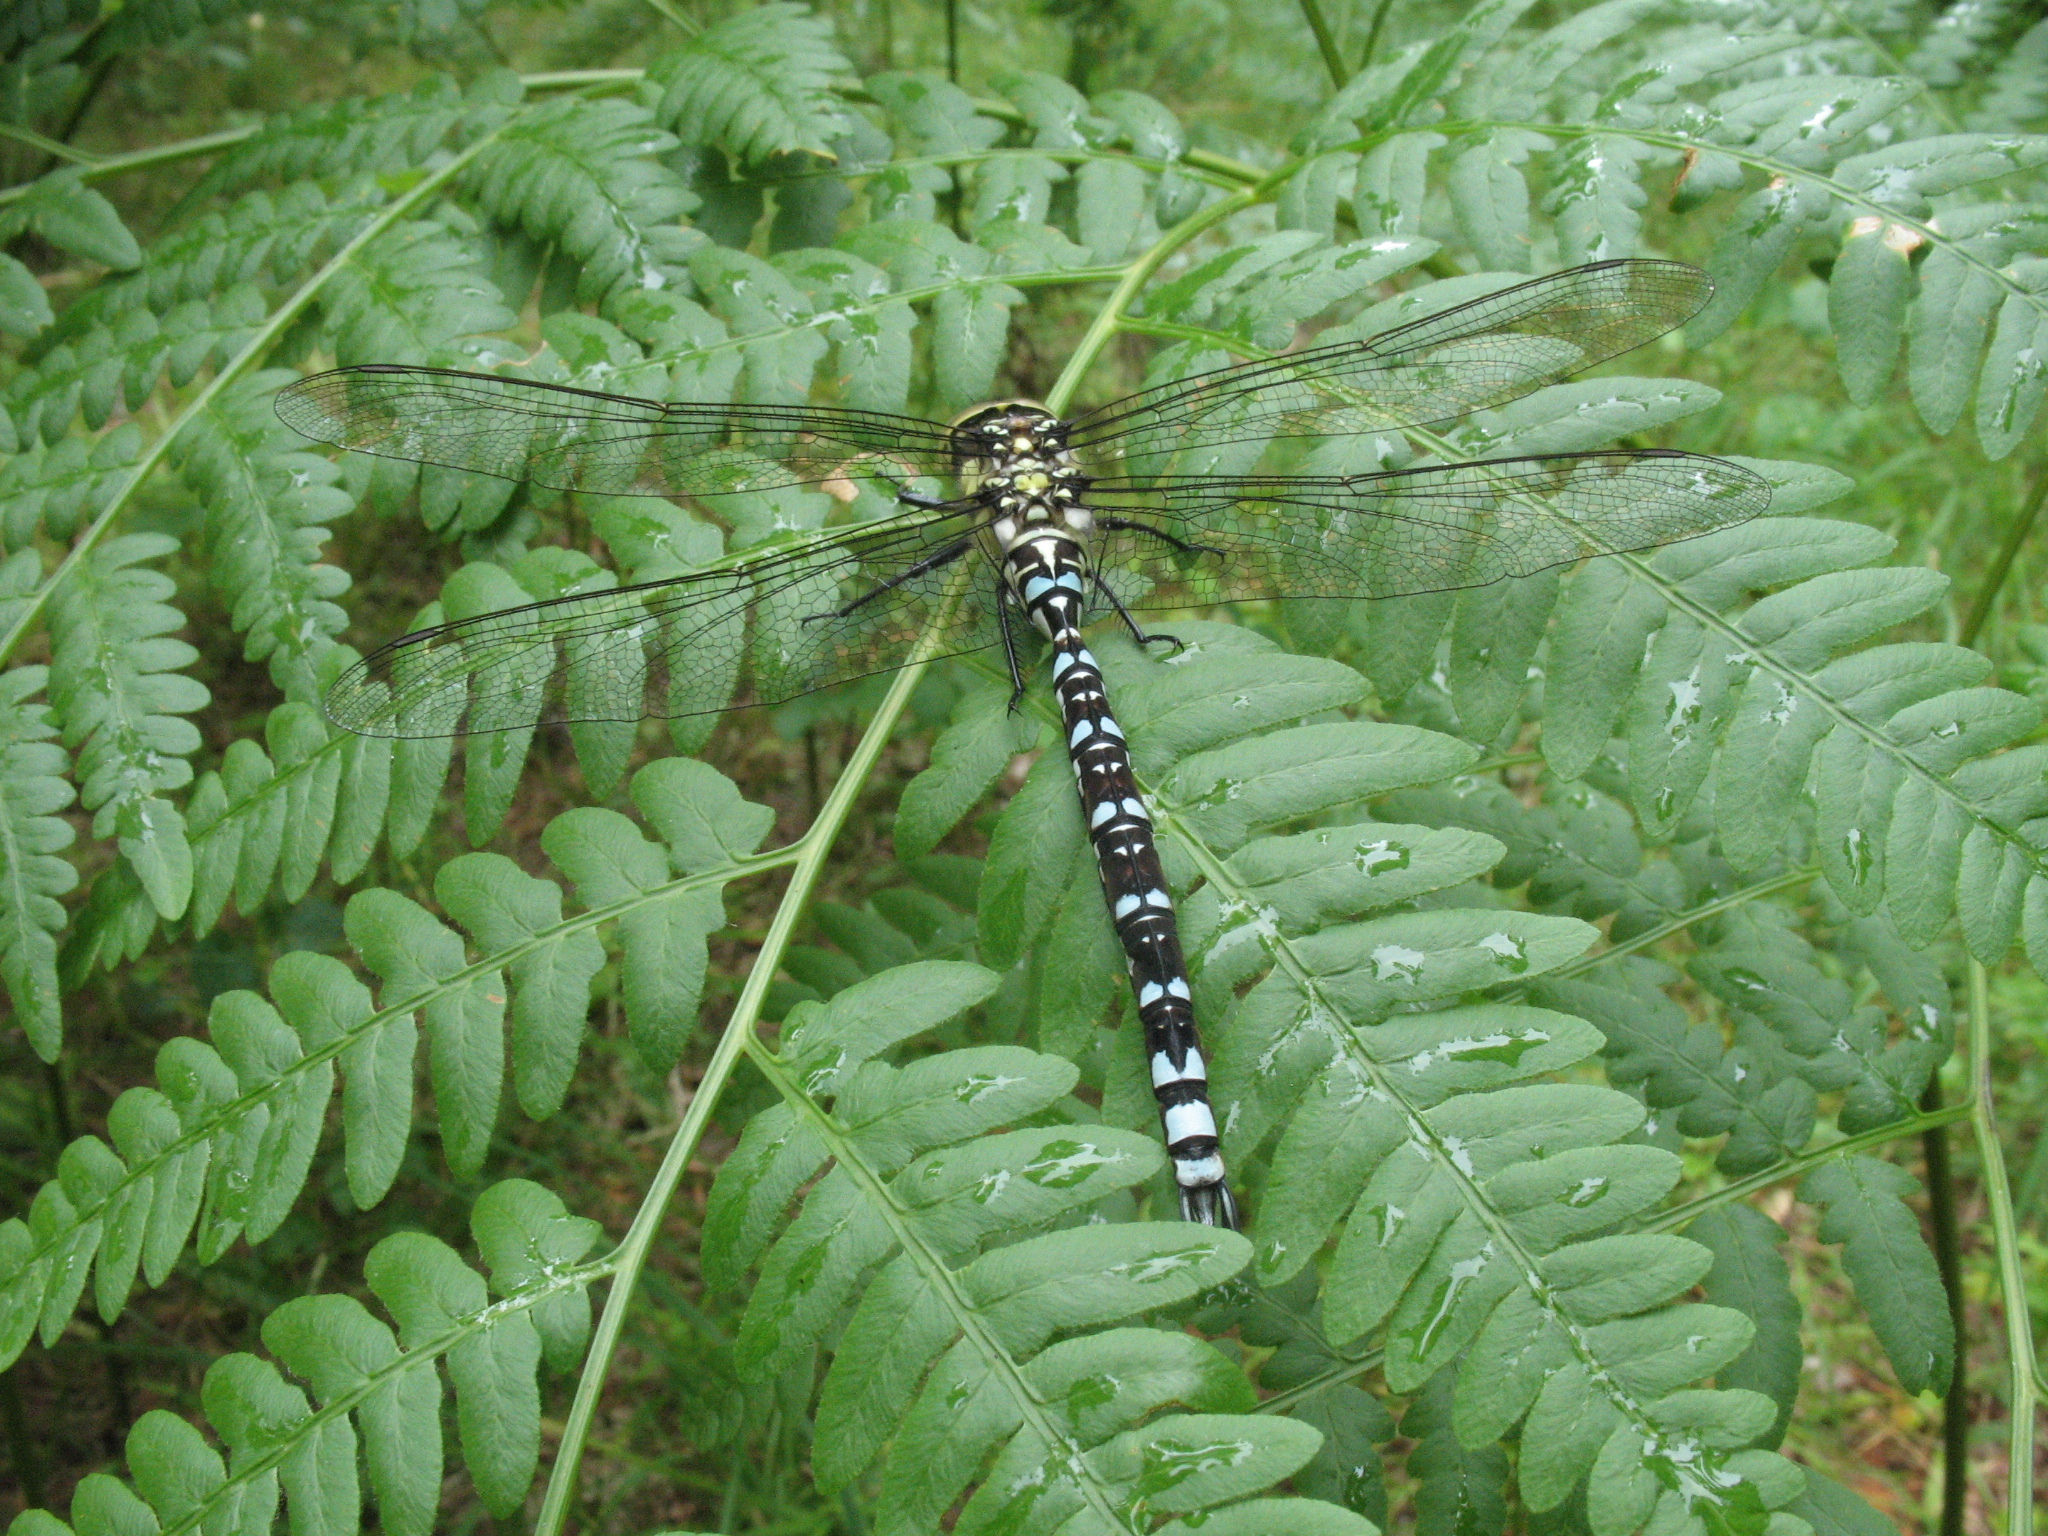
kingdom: Animalia
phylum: Arthropoda
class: Insecta
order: Odonata
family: Aeshnidae
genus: Aeshna
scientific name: Aeshna cyanea
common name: Southern hawker
